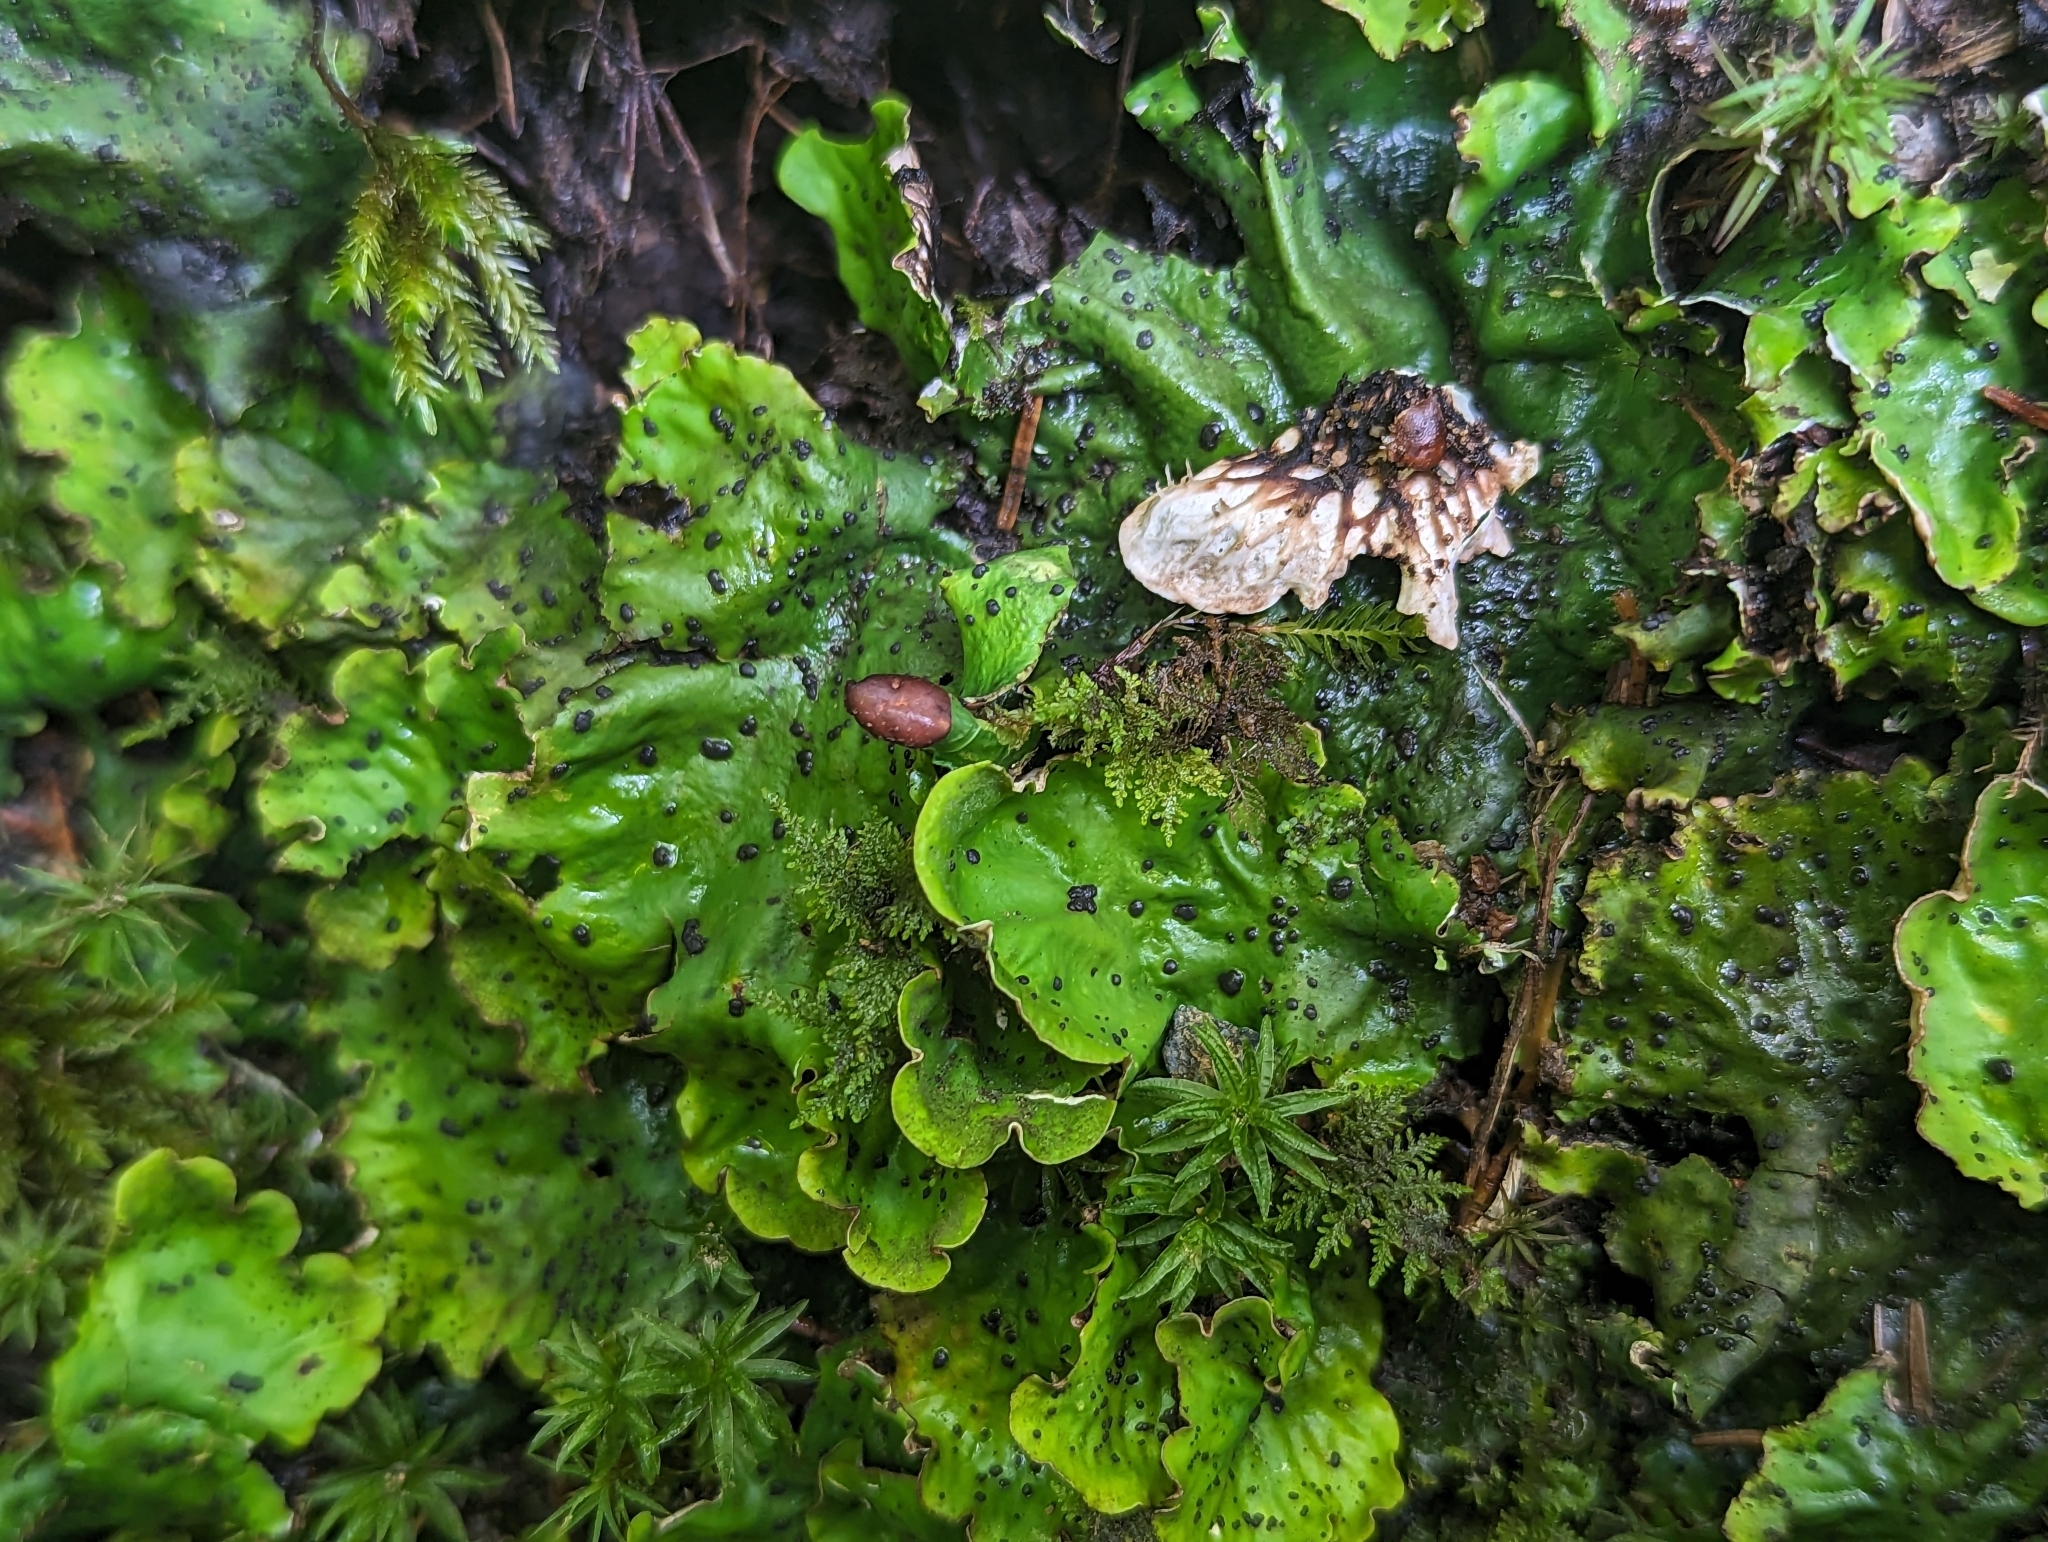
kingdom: Fungi
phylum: Ascomycota
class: Lecanoromycetes
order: Peltigerales
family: Peltigeraceae
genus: Peltigera
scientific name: Peltigera leucophlebia
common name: Ruffled freckle pelt lichen
